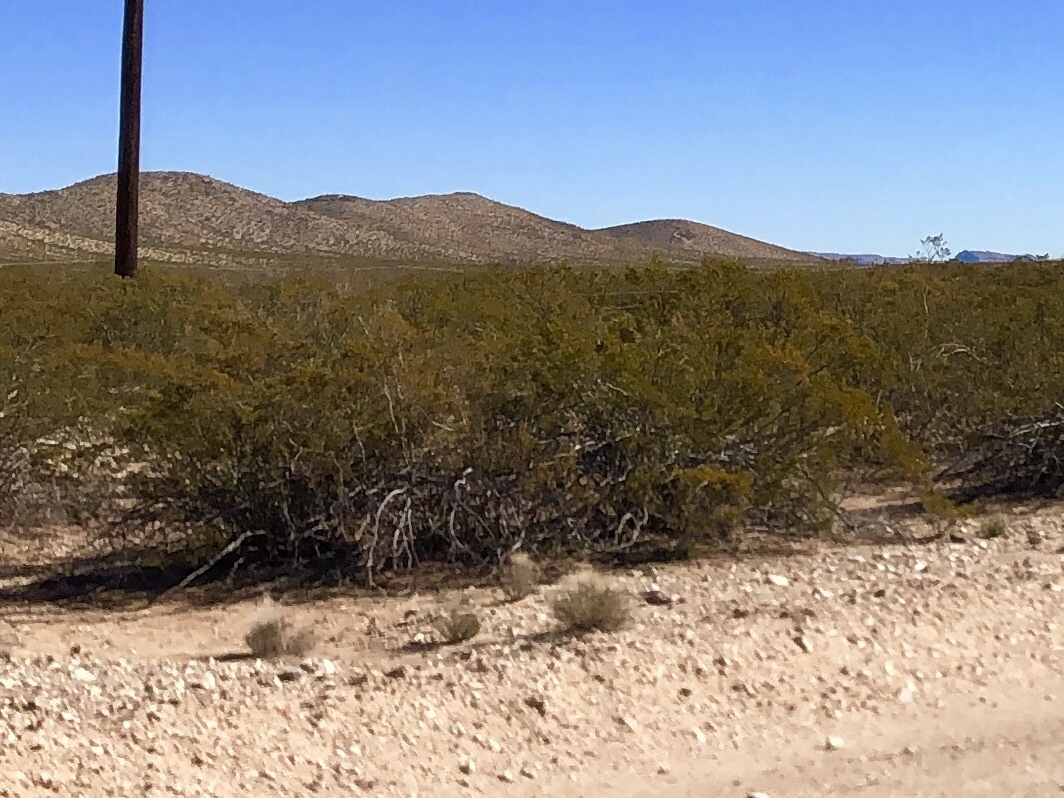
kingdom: Plantae
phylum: Tracheophyta
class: Magnoliopsida
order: Zygophyllales
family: Zygophyllaceae
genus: Larrea
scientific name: Larrea tridentata
